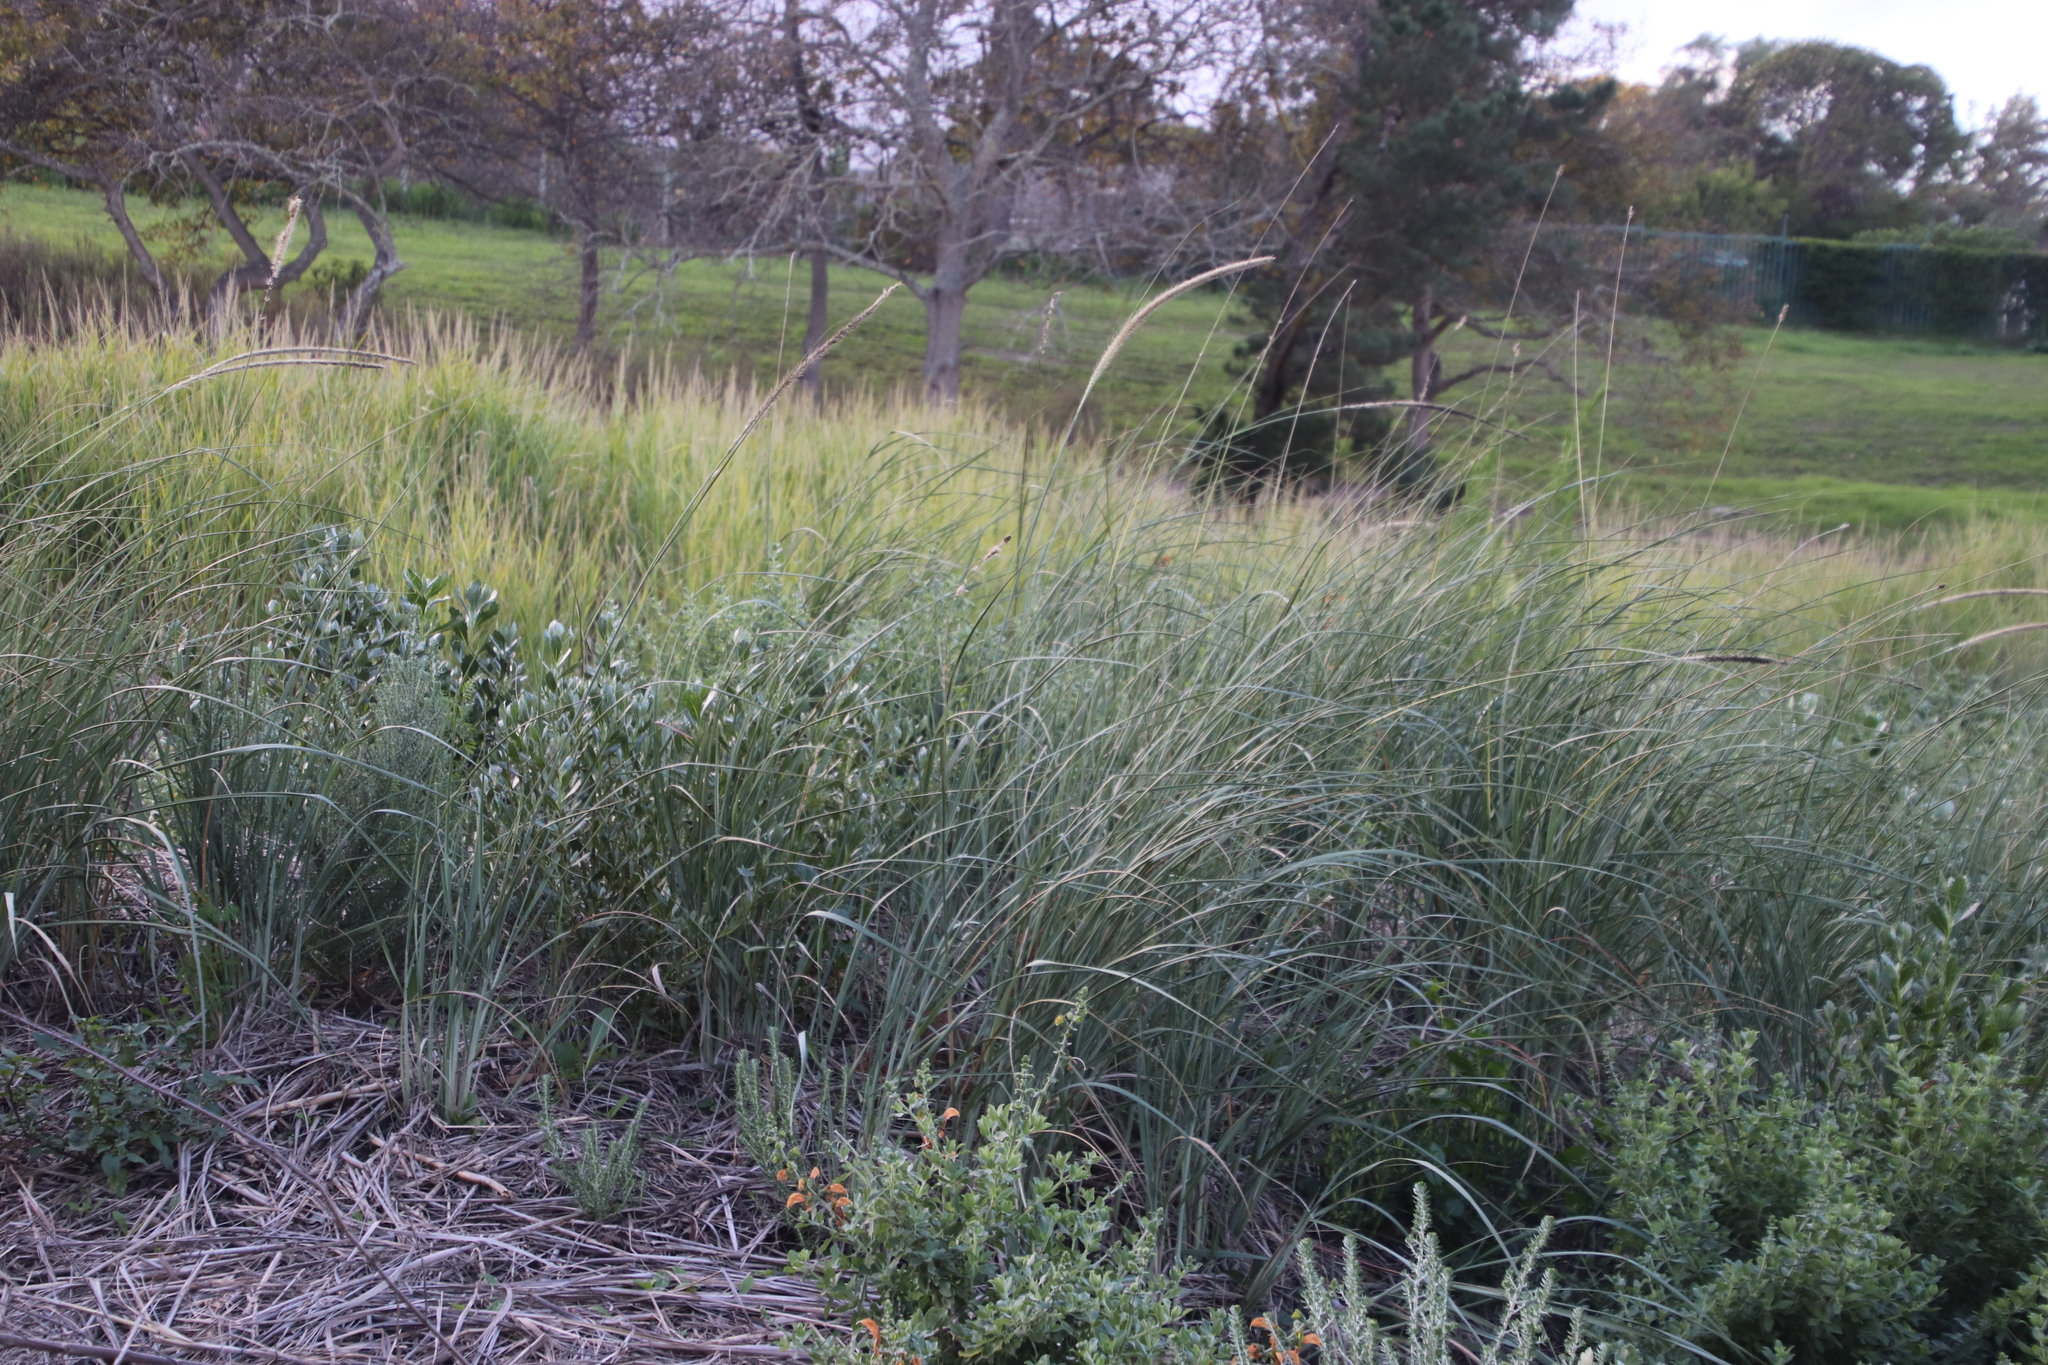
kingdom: Plantae
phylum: Tracheophyta
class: Liliopsida
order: Poales
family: Poaceae
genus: Cenchrus
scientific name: Cenchrus caudatus
